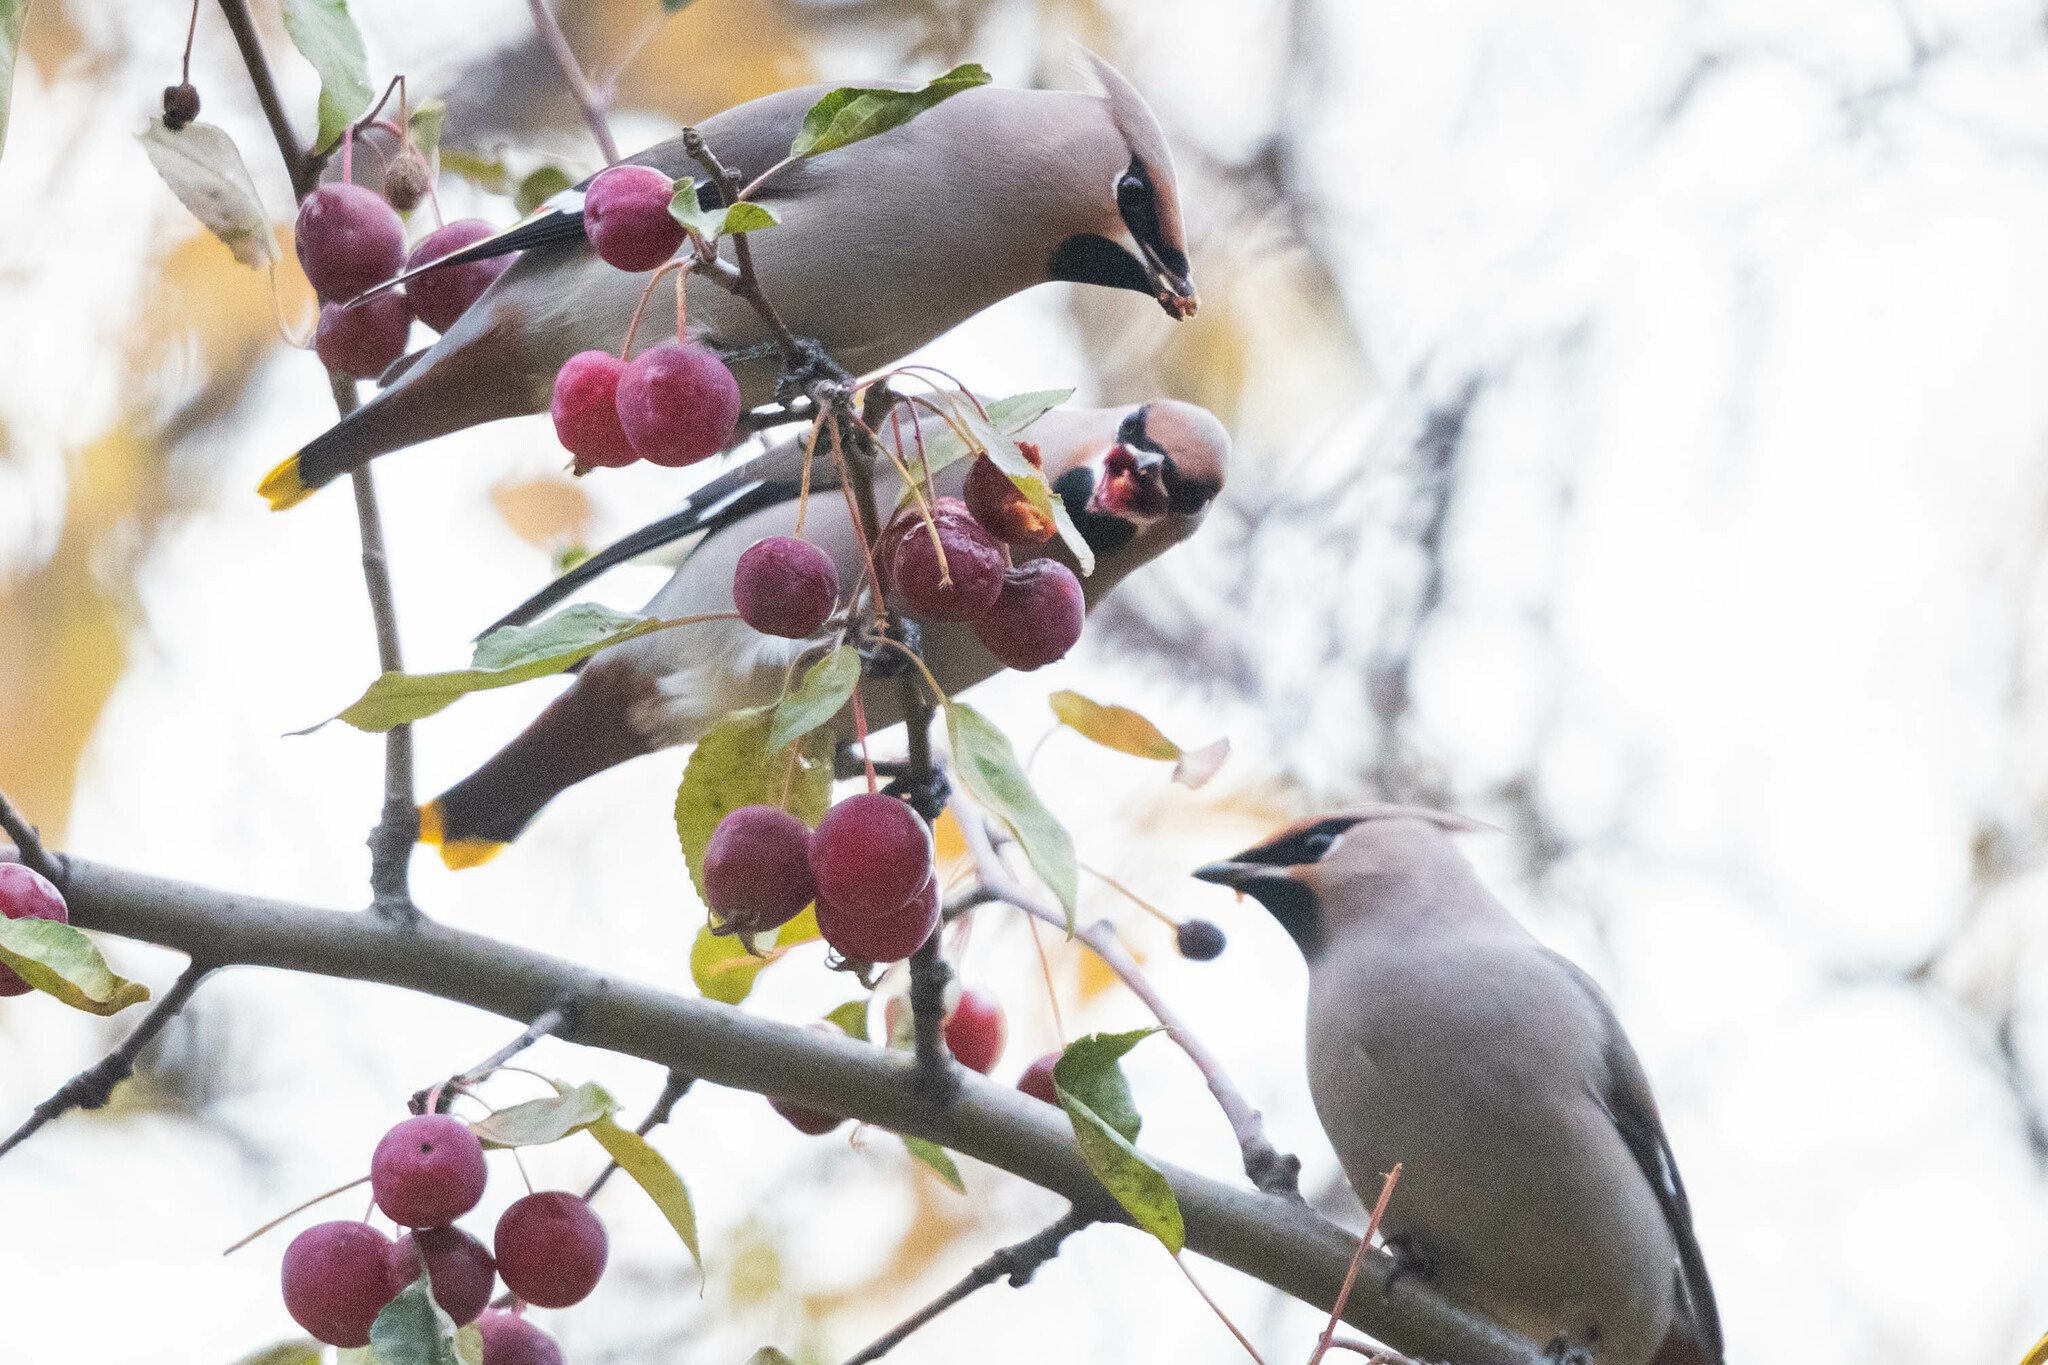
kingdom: Animalia
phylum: Chordata
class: Aves
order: Passeriformes
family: Bombycillidae
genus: Bombycilla
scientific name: Bombycilla garrulus
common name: Bohemian waxwing
